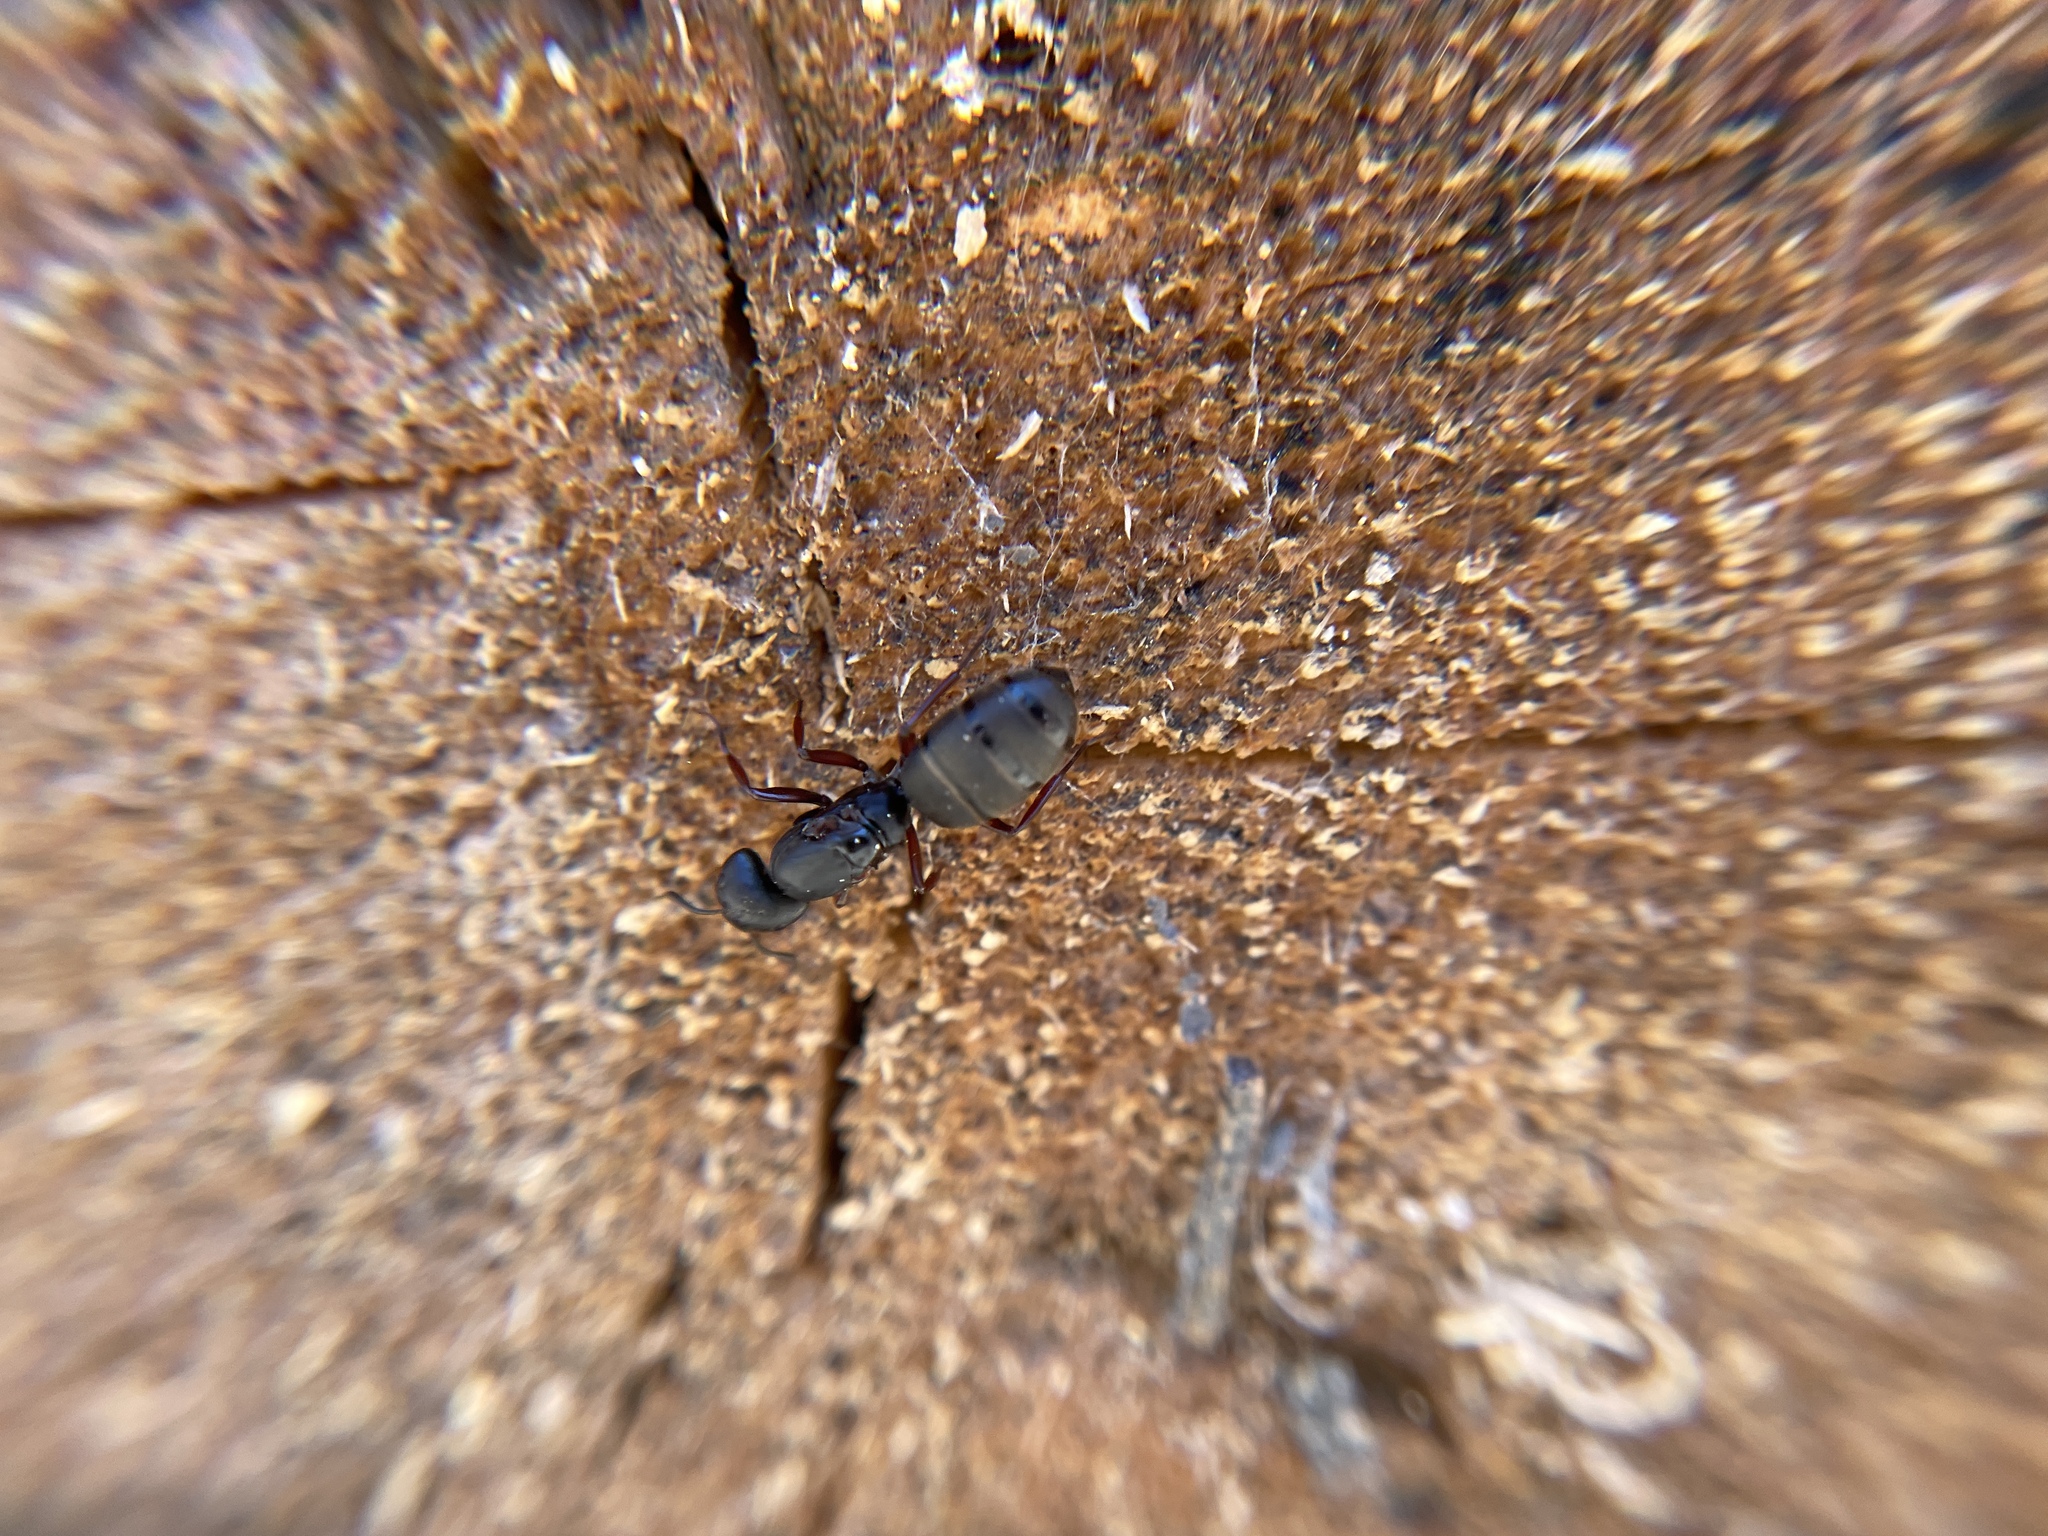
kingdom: Animalia
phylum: Arthropoda
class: Insecta
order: Hymenoptera
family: Formicidae
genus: Camponotus
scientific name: Camponotus modoc
